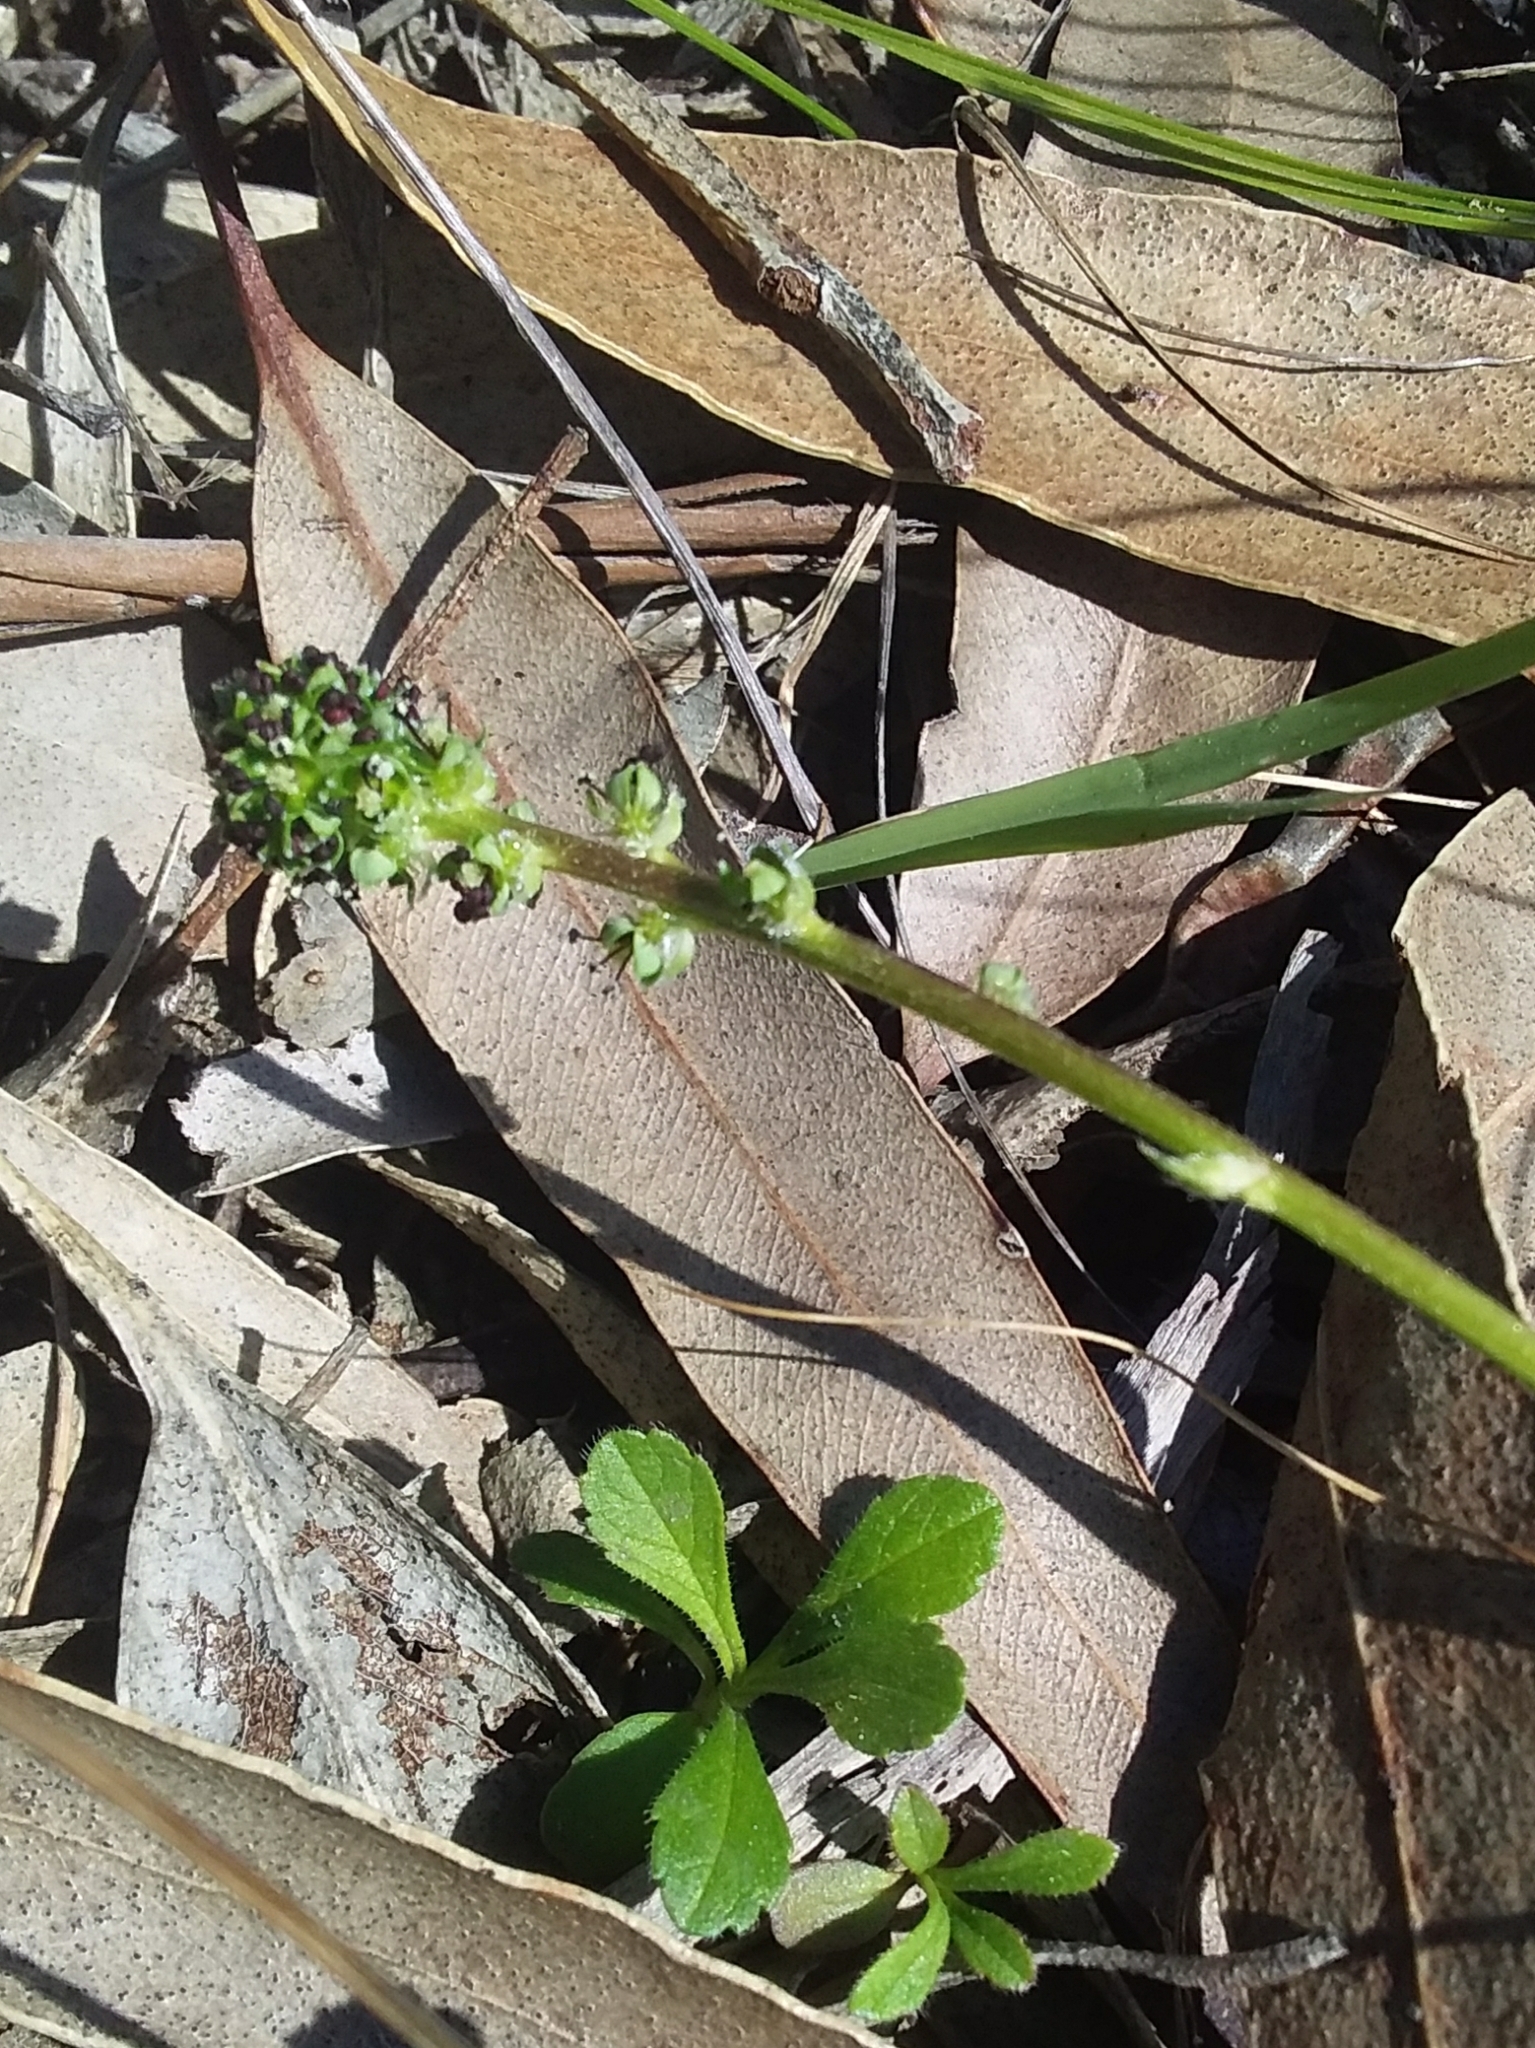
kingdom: Plantae
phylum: Tracheophyta
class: Magnoliopsida
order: Rosales
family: Rosaceae
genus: Acaena
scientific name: Acaena echinata
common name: Sheepbur
